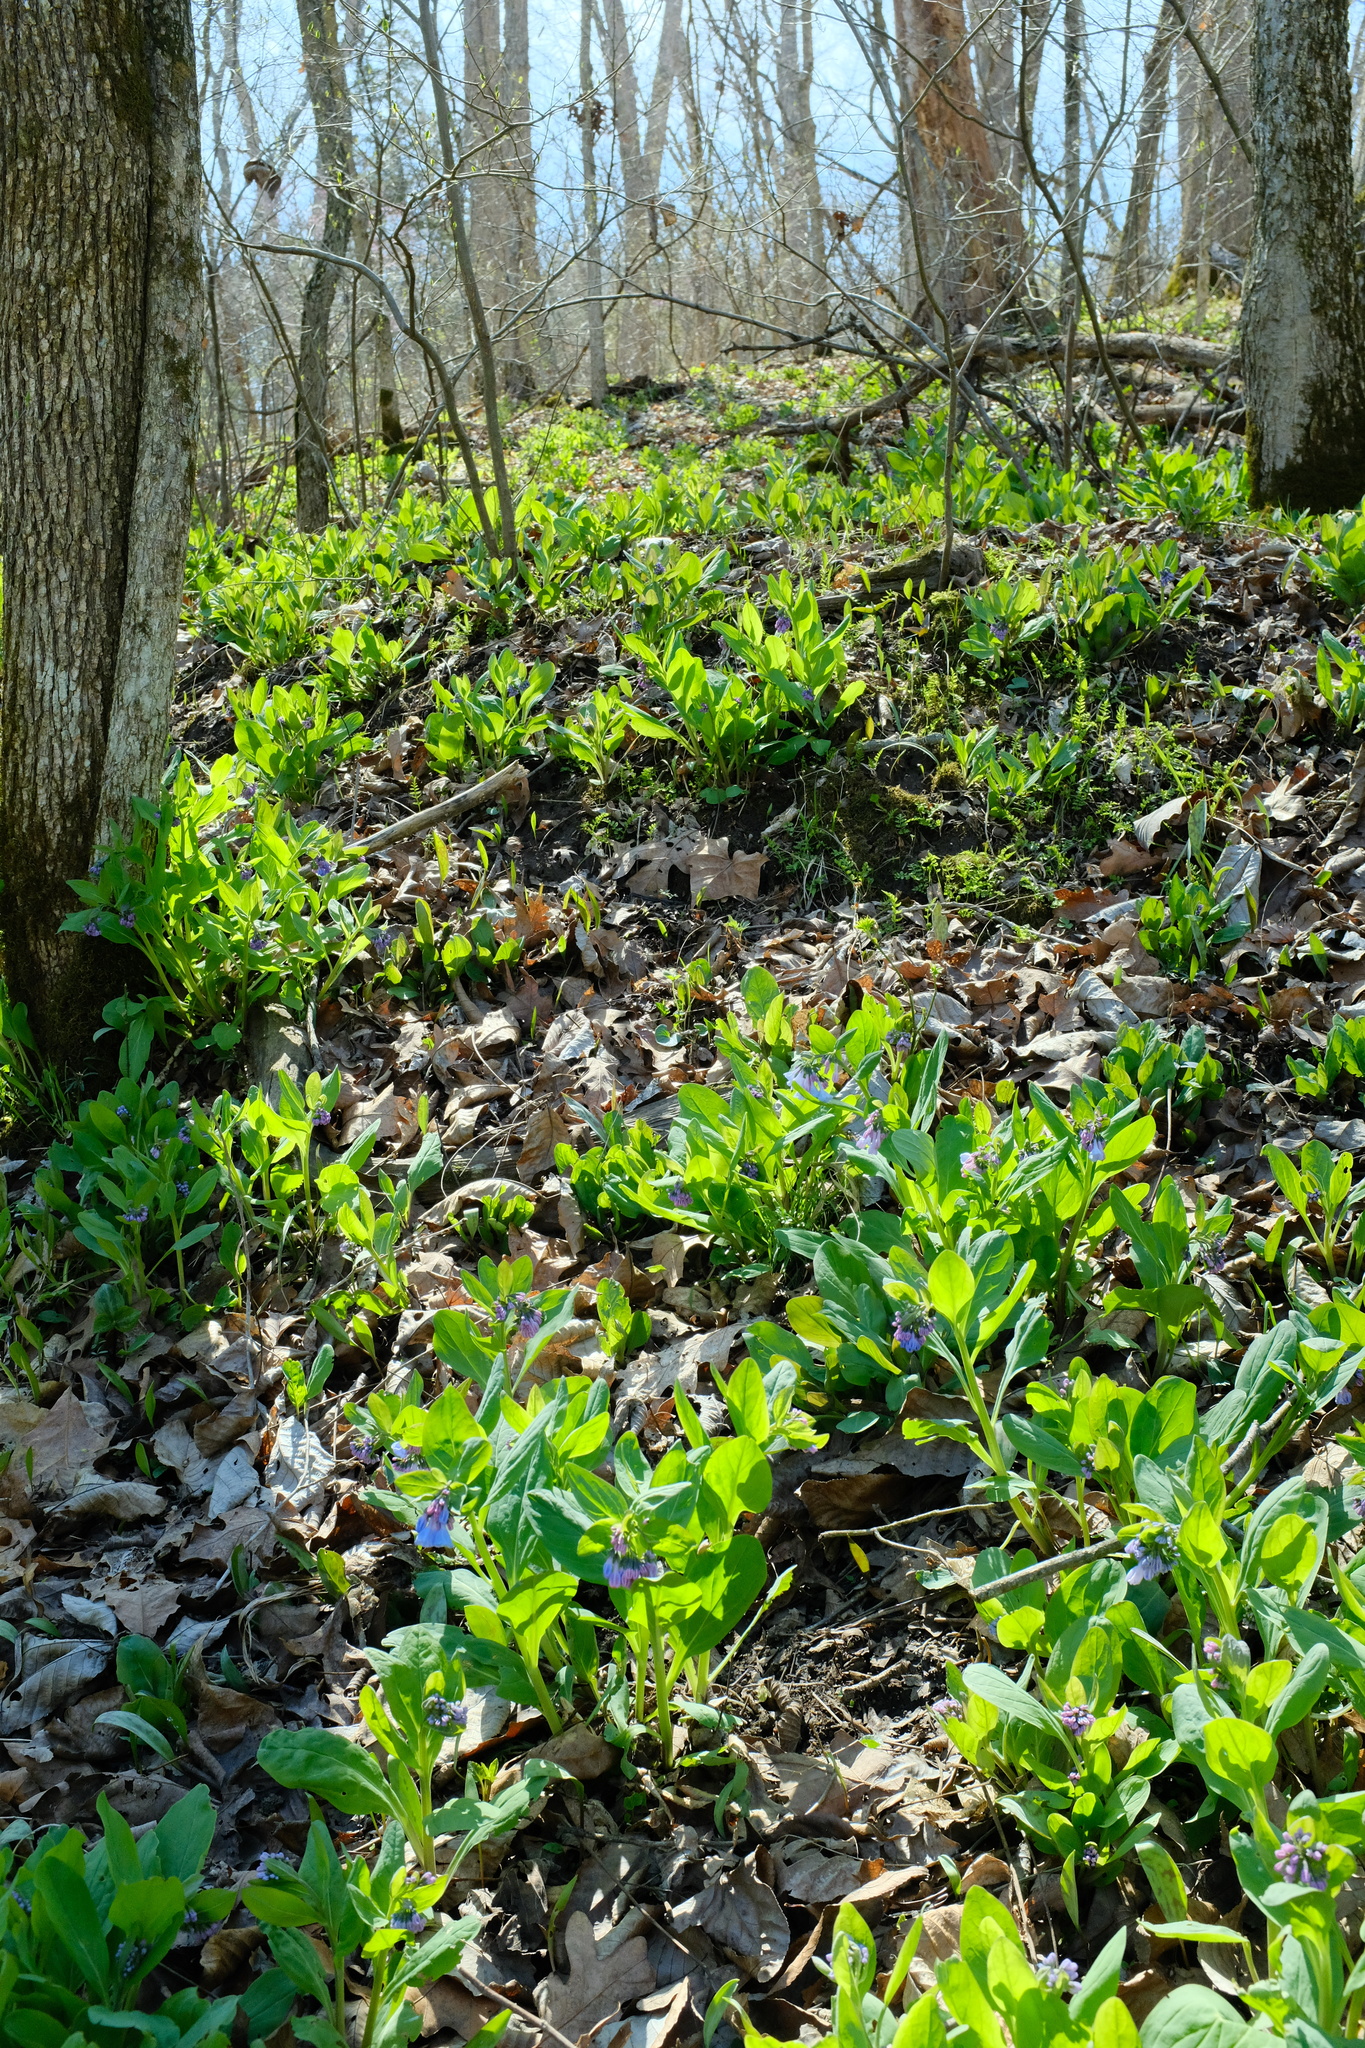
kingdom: Plantae
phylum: Tracheophyta
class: Magnoliopsida
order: Boraginales
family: Boraginaceae
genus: Mertensia
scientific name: Mertensia virginica
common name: Virginia bluebells
